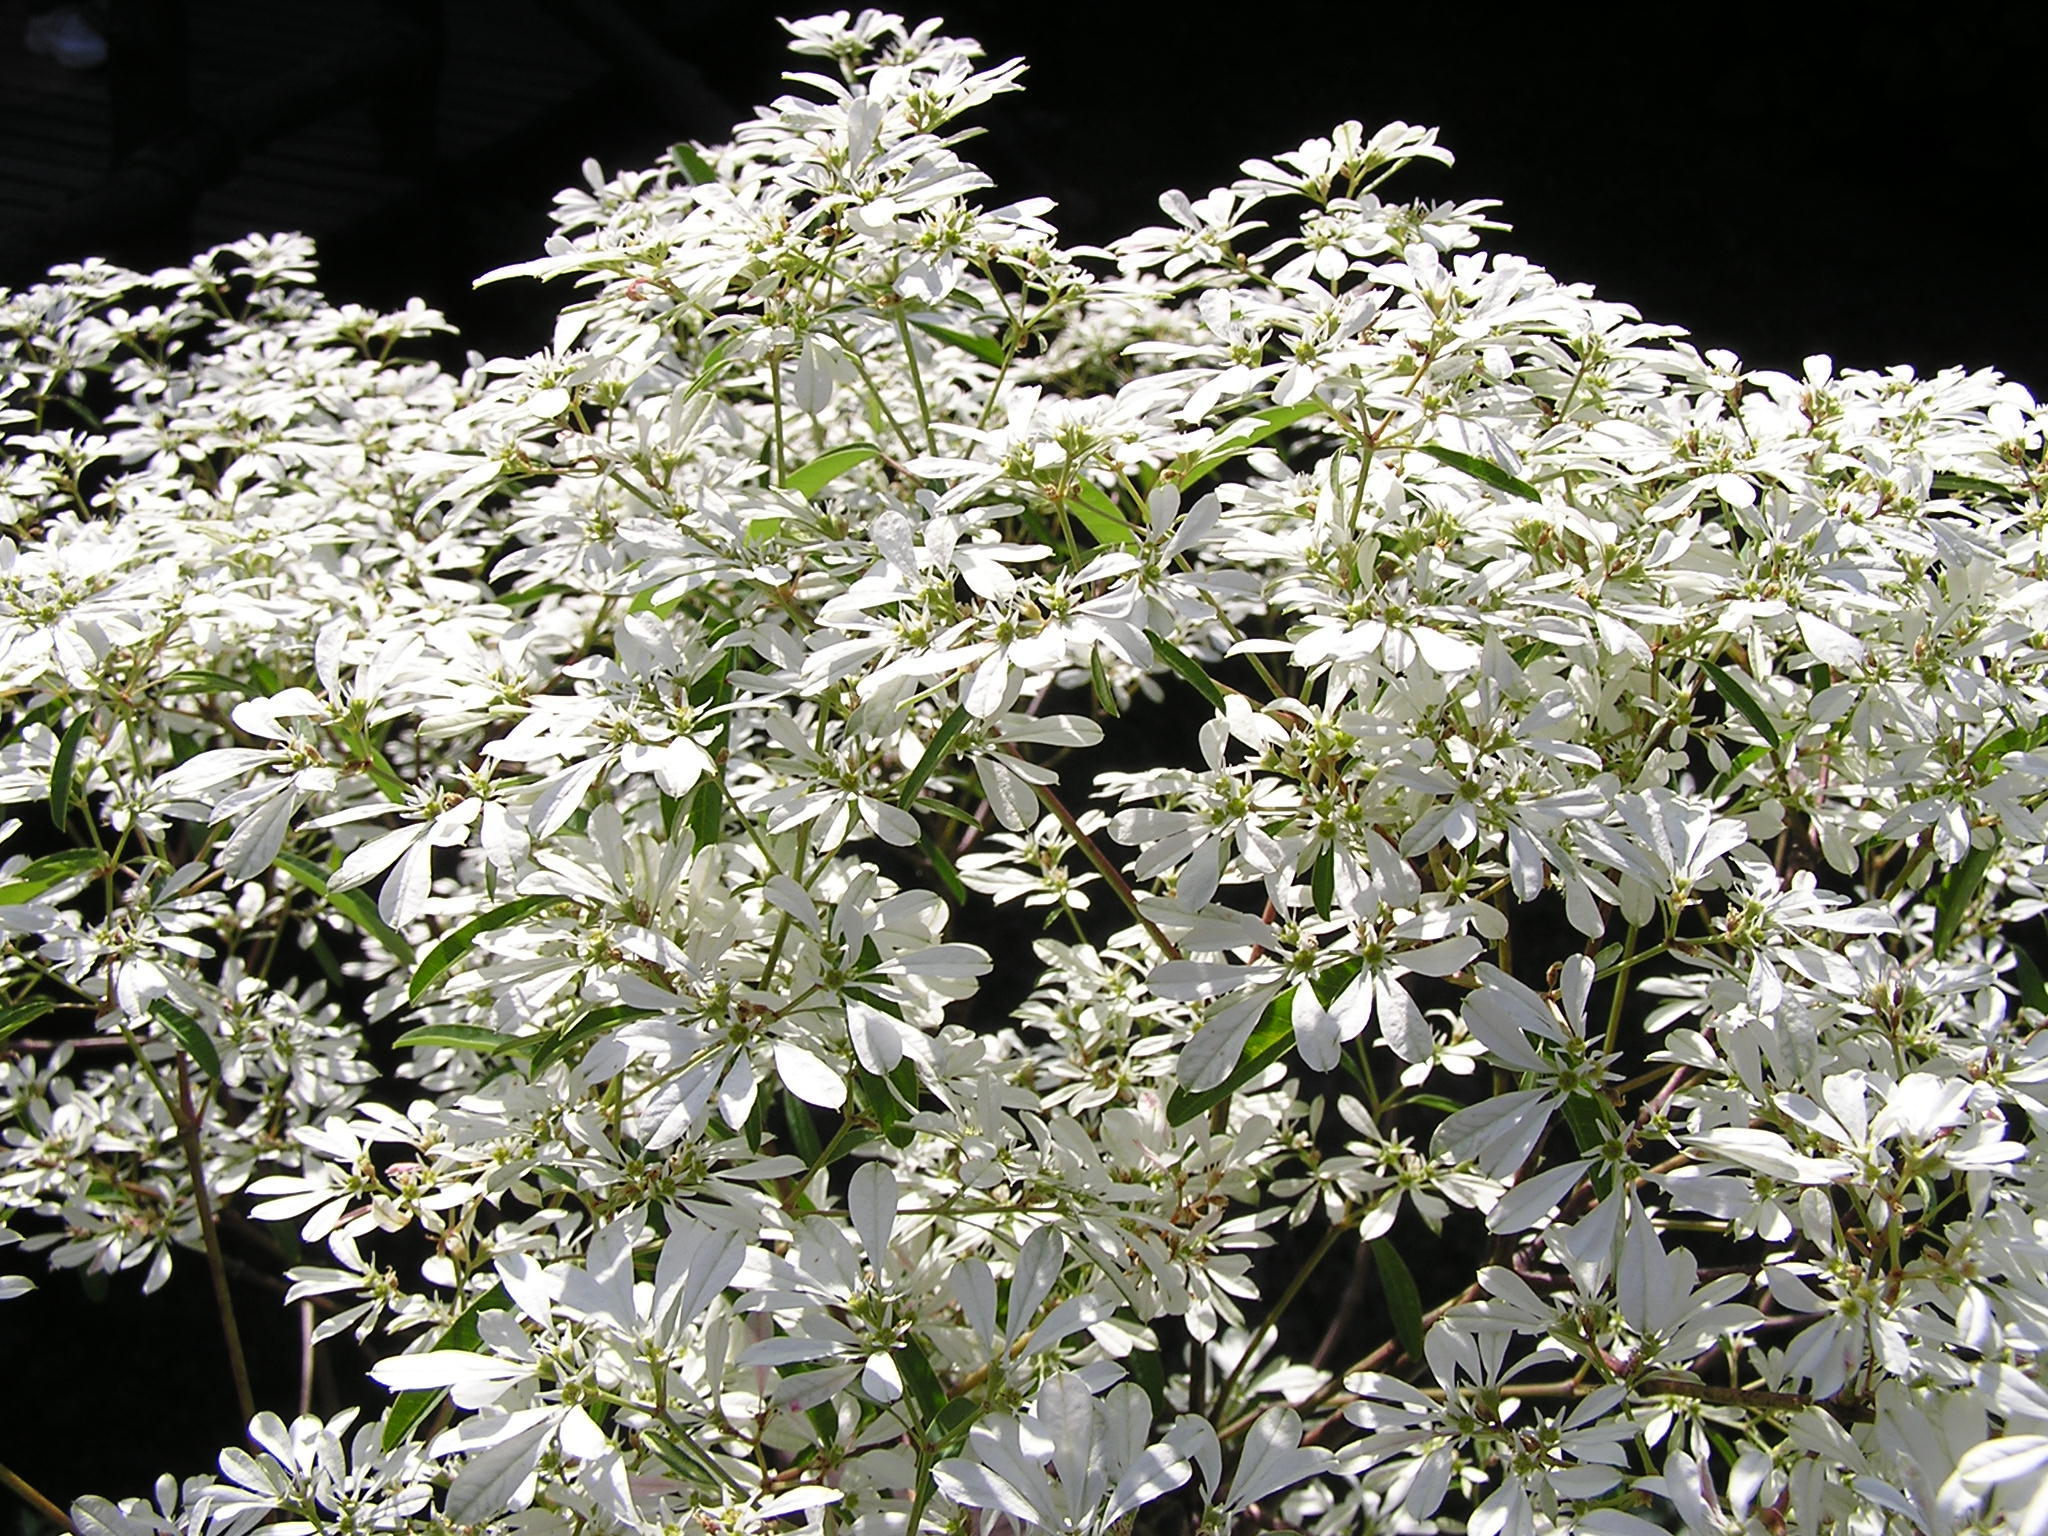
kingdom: Plantae
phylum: Tracheophyta
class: Magnoliopsida
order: Malpighiales
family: Euphorbiaceae
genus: Euphorbia
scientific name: Euphorbia leucocephala
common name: Pascuita
